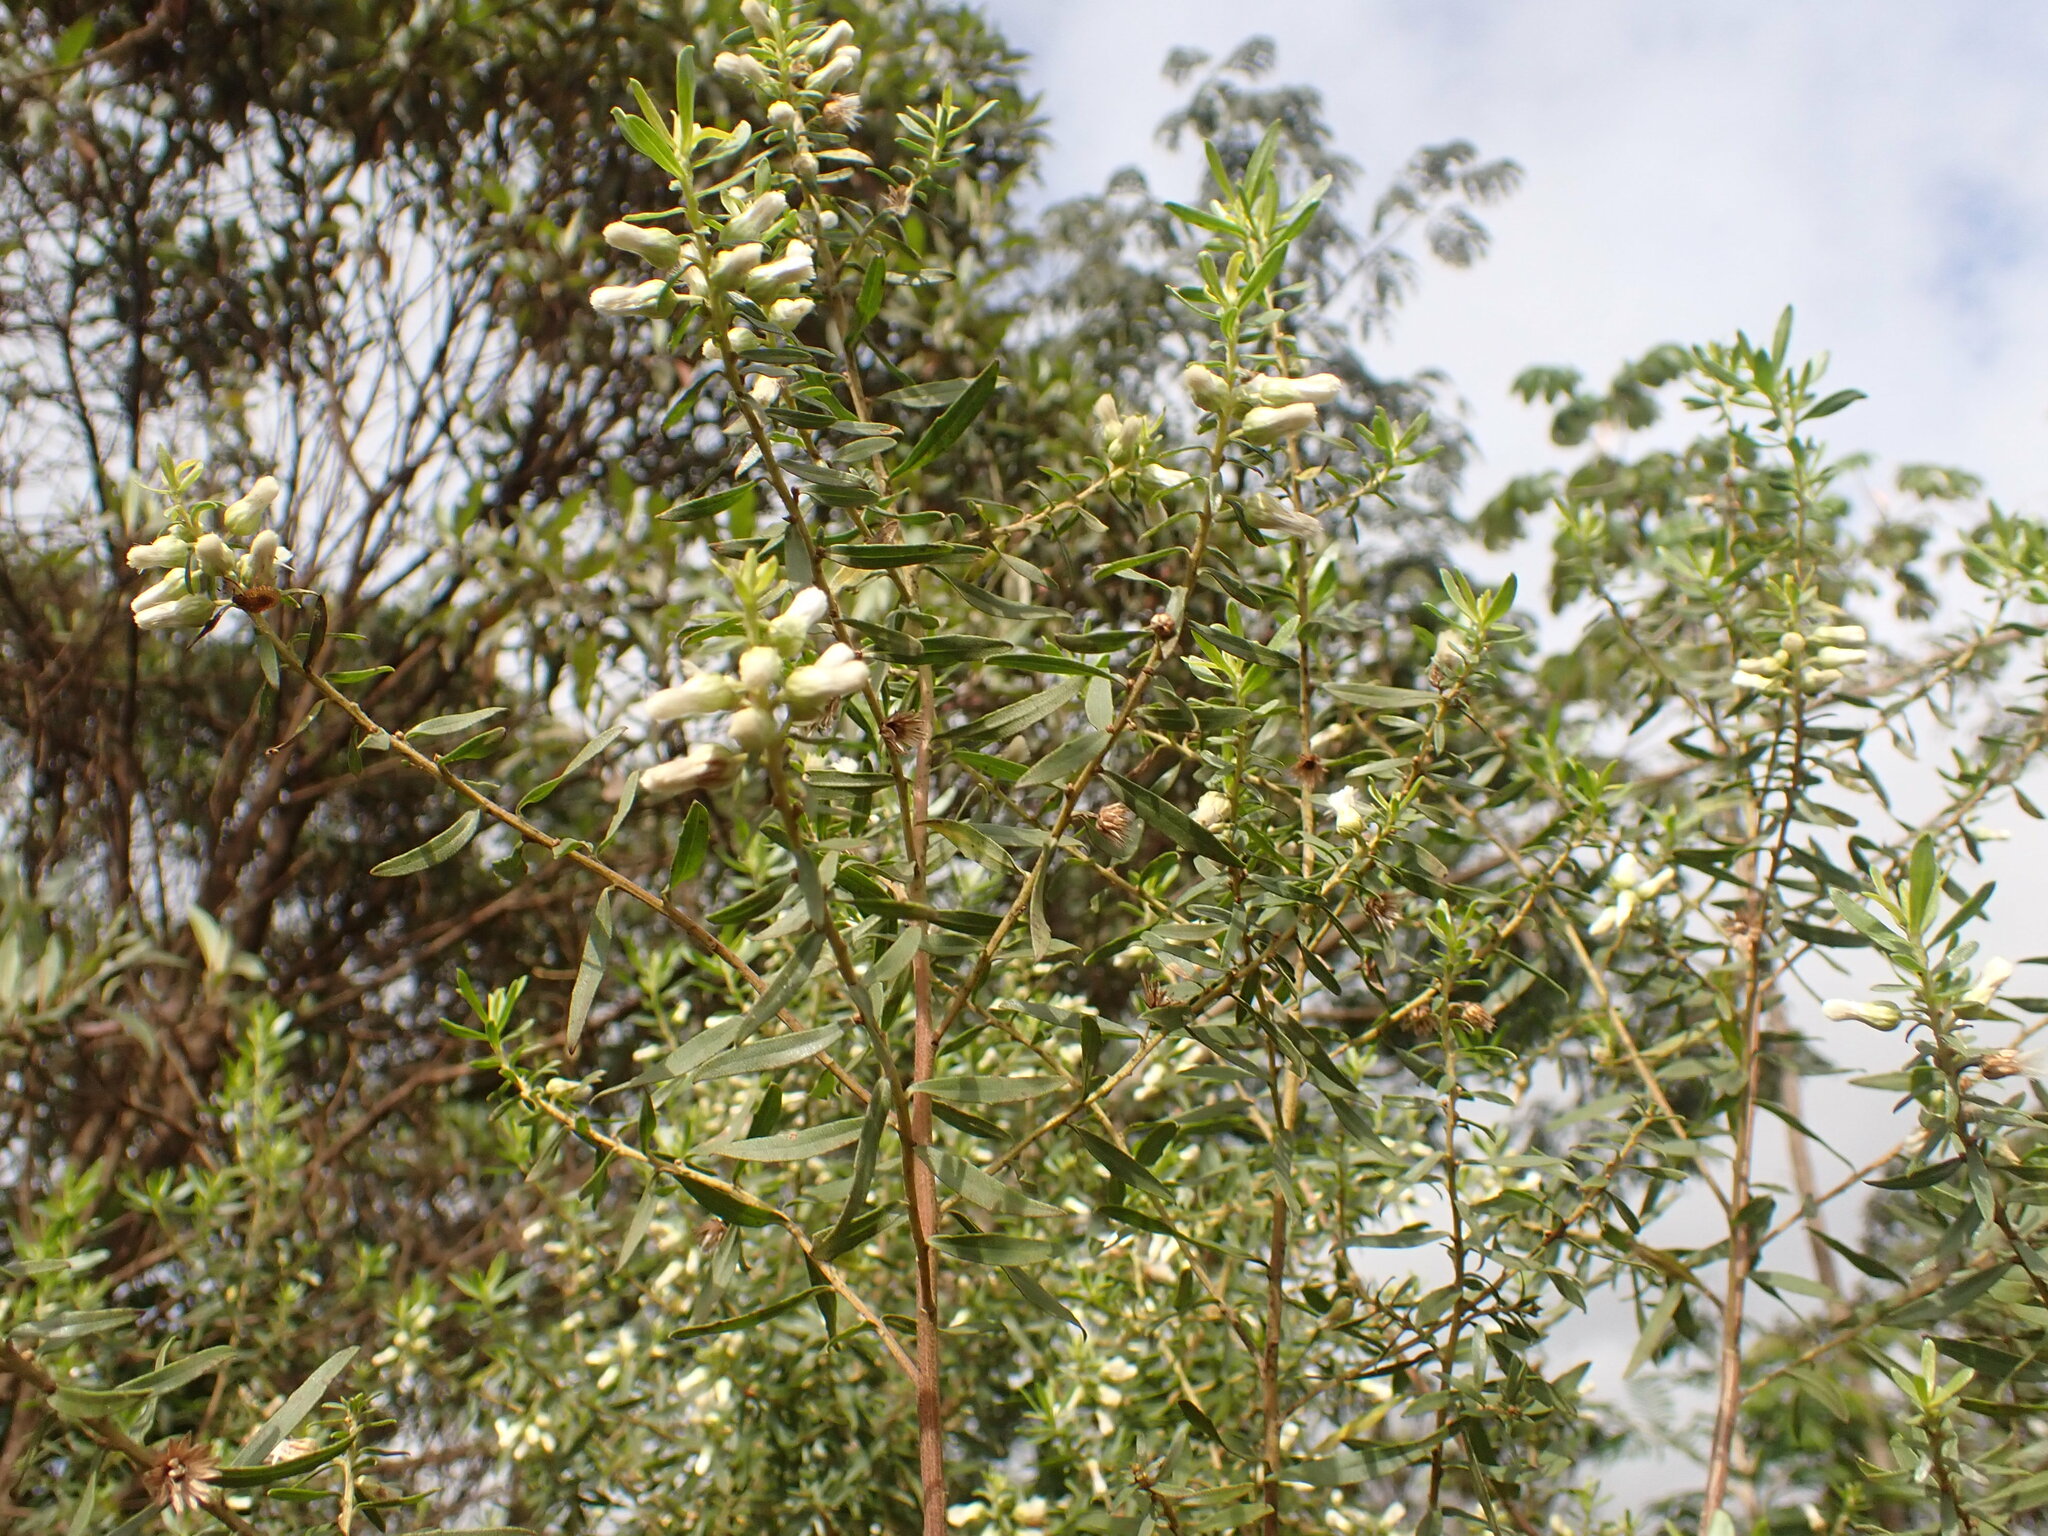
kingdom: Plantae
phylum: Tracheophyta
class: Magnoliopsida
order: Asterales
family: Asteraceae
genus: Baccharis
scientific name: Baccharis dracunculifolia
